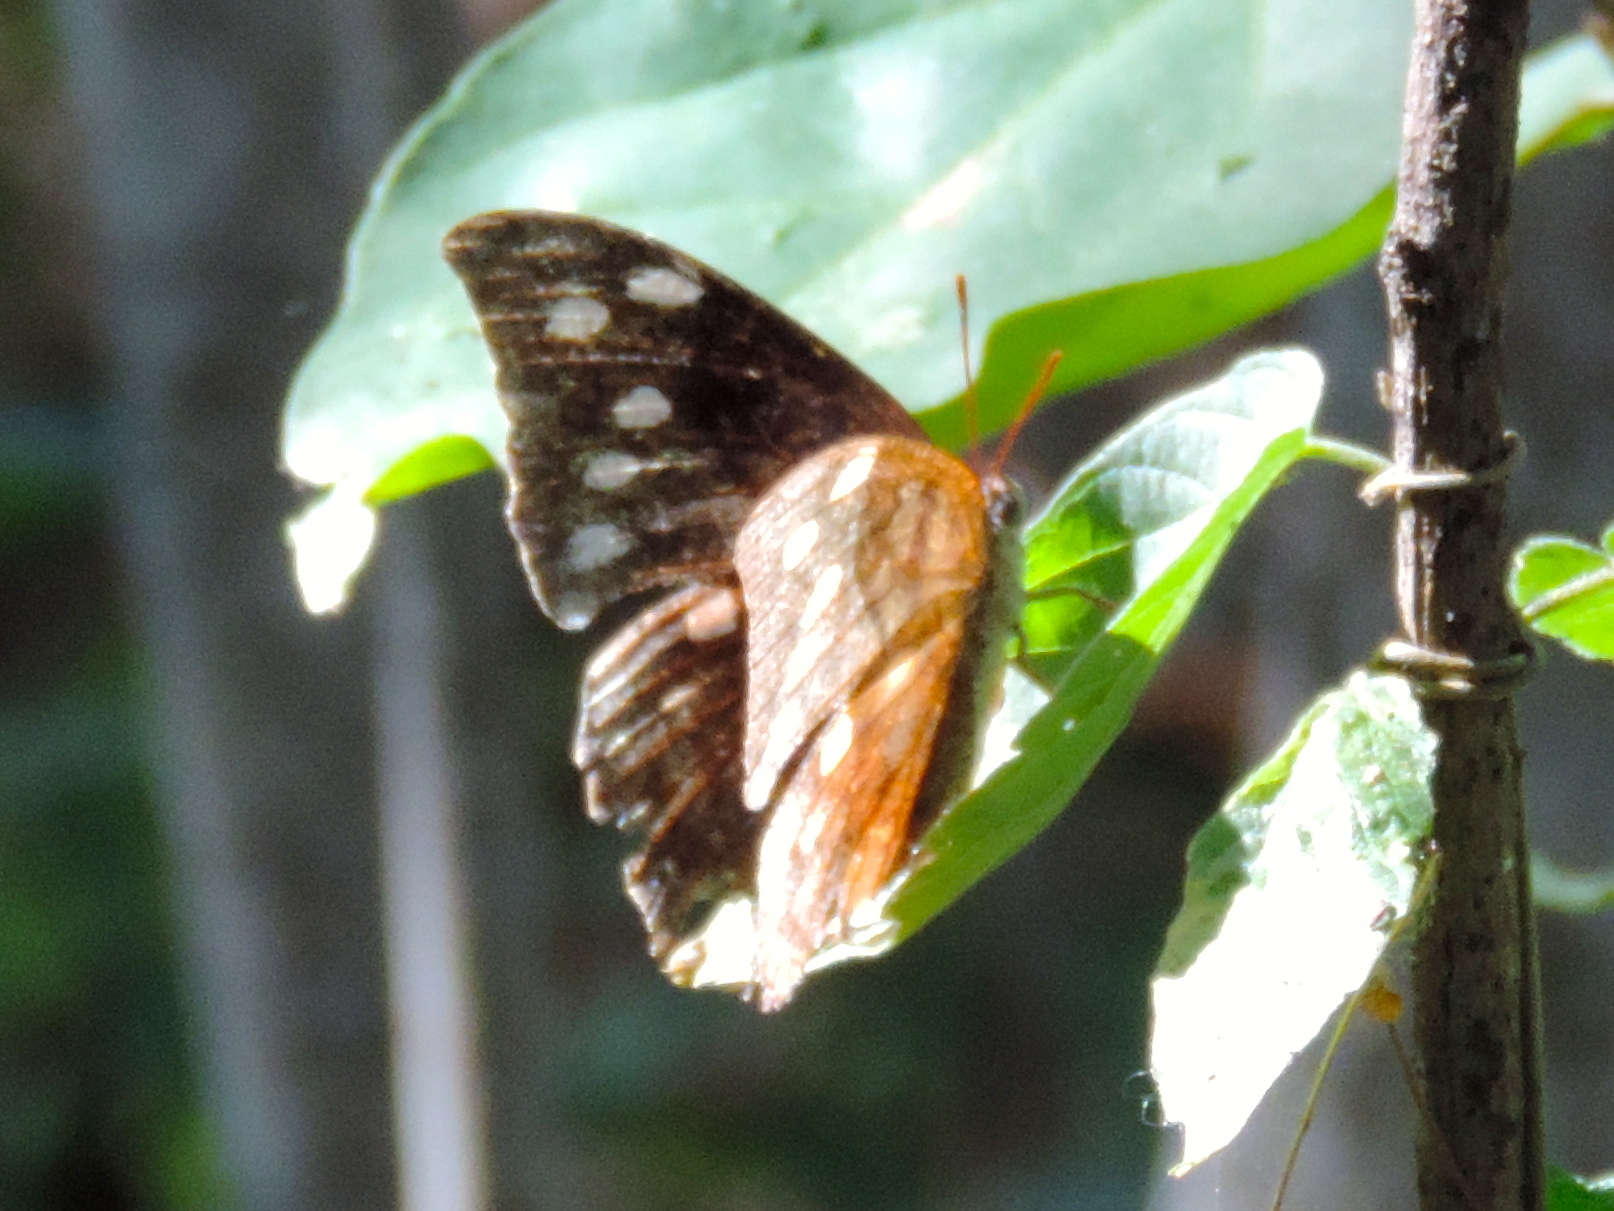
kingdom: Animalia
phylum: Arthropoda
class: Insecta
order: Lepidoptera
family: Nymphalidae
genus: Anaea
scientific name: Anaea pithyusa
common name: Pale-spotted leafwing
